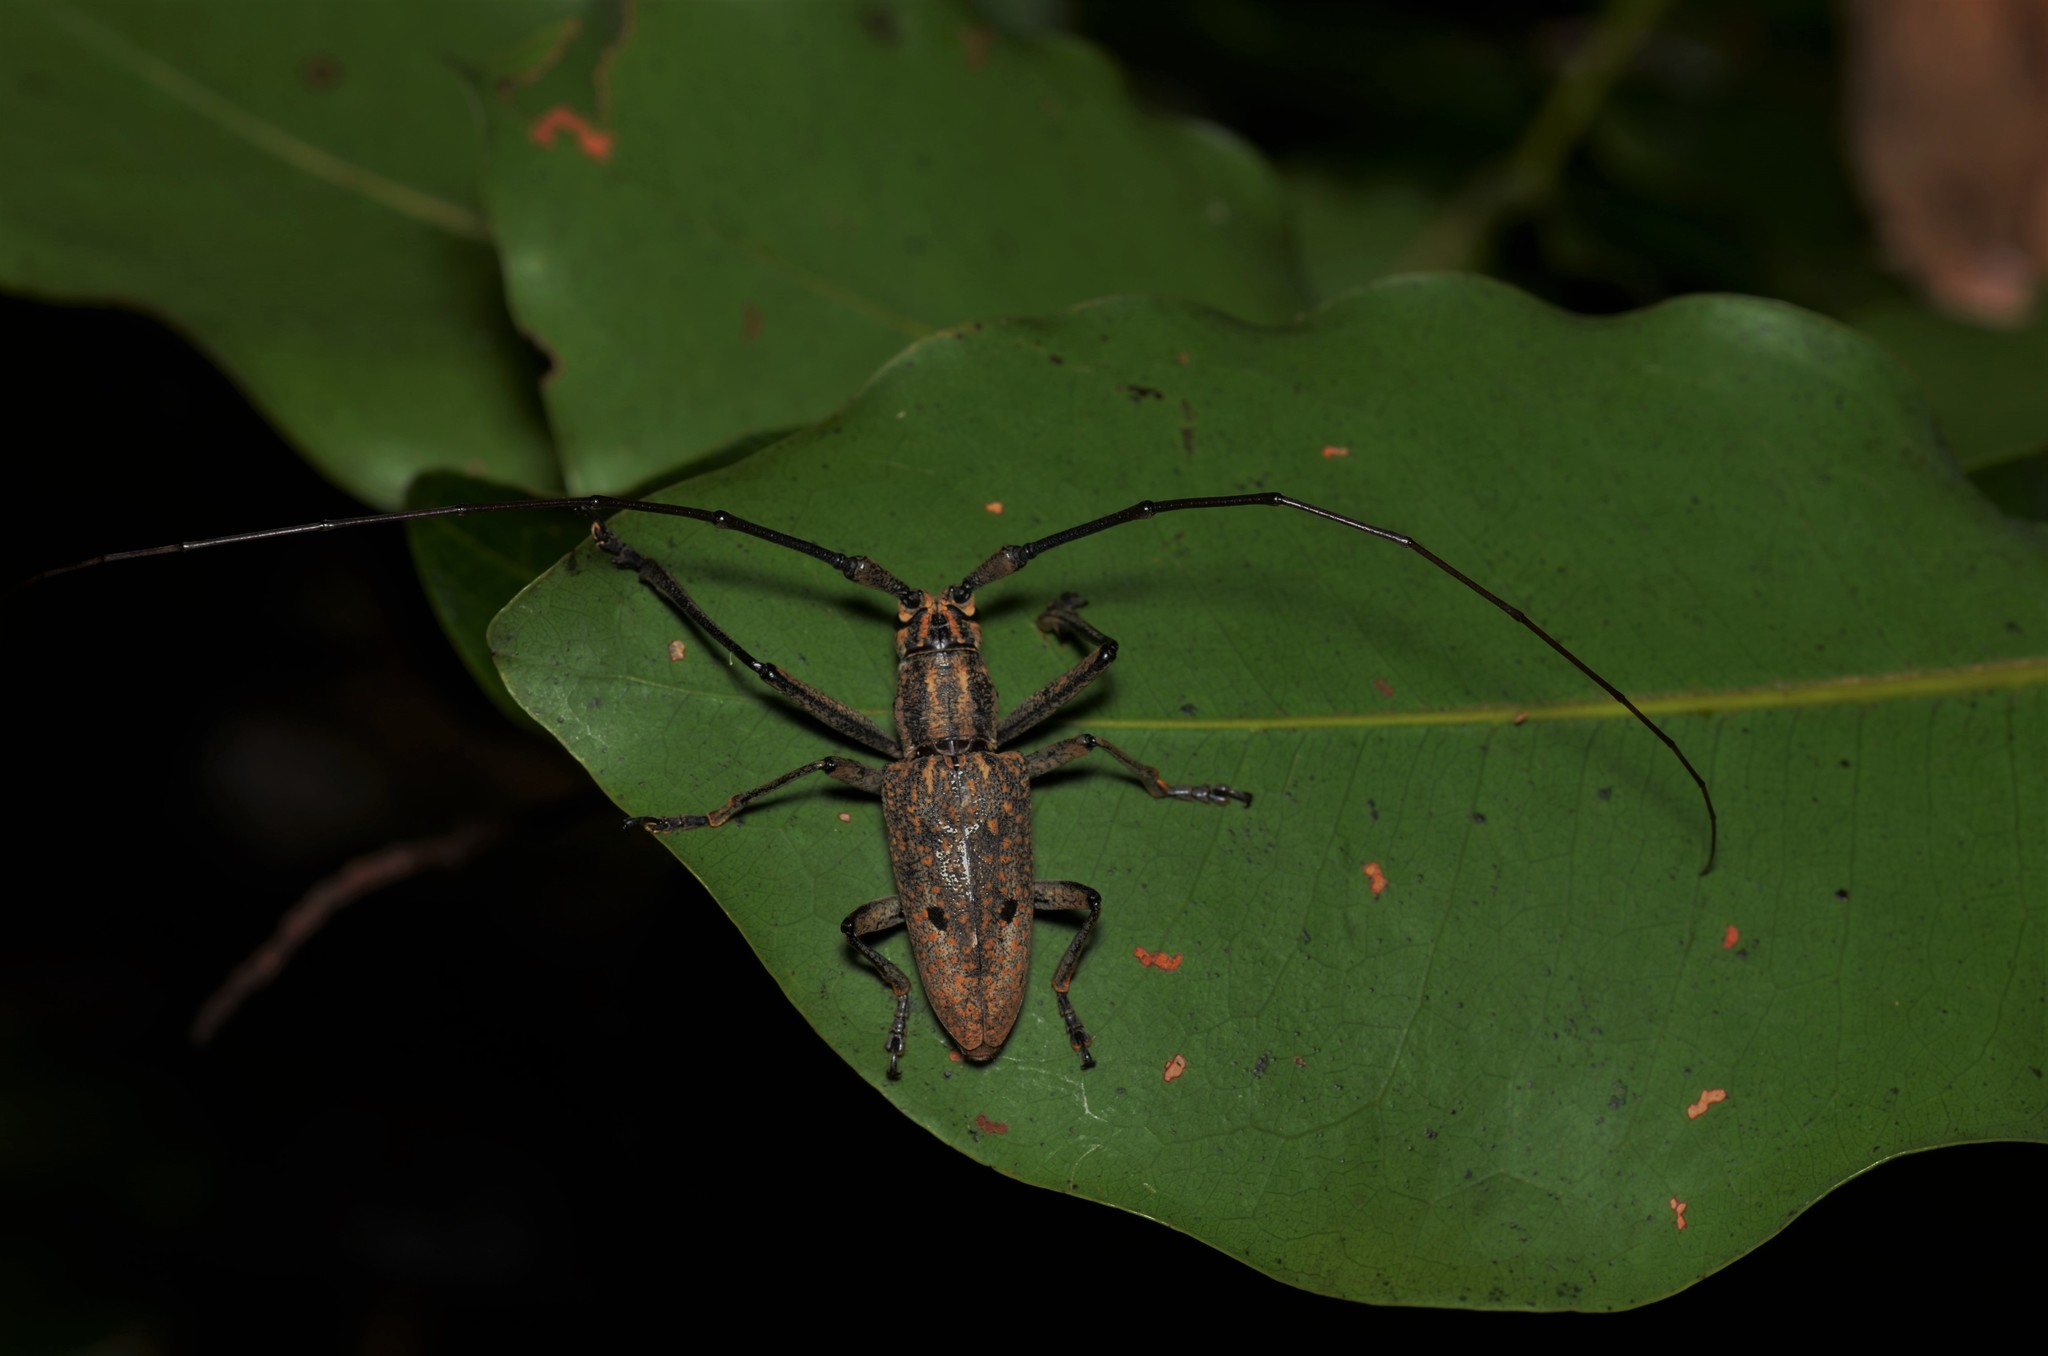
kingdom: Animalia
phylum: Arthropoda
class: Insecta
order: Coleoptera
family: Cerambycidae
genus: Pelargoderus
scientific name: Pelargoderus papuanus
